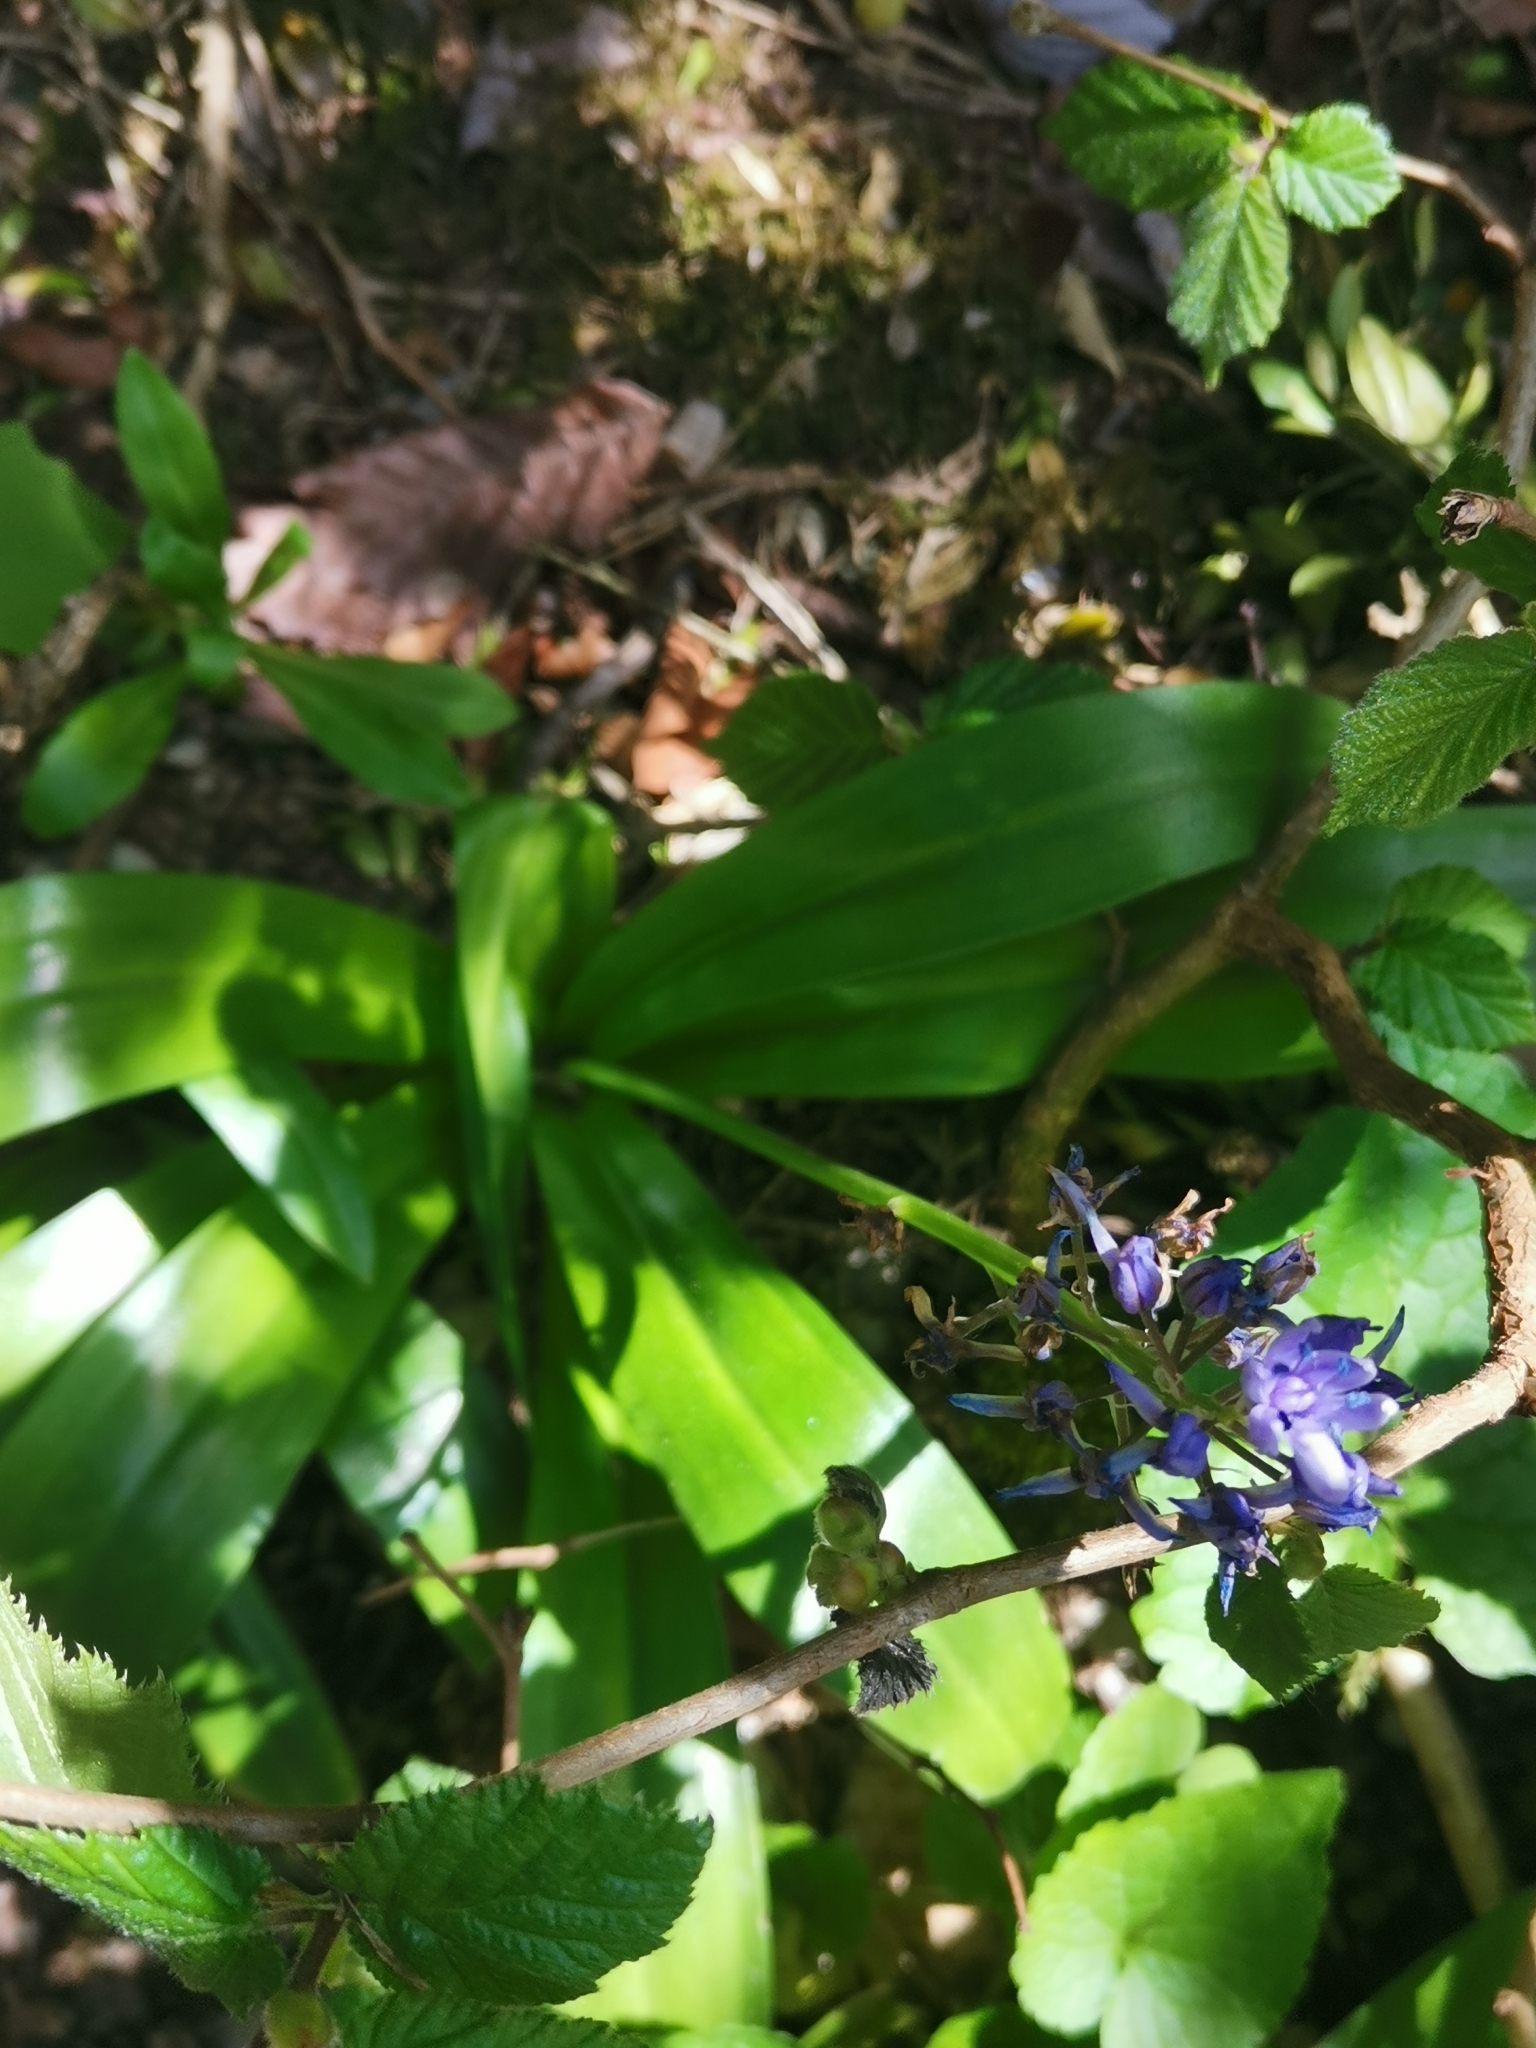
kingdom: Plantae
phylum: Tracheophyta
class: Liliopsida
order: Asparagales
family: Asparagaceae
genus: Scilla
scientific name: Scilla lilio-hyacinthus
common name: Pyrenean squill
